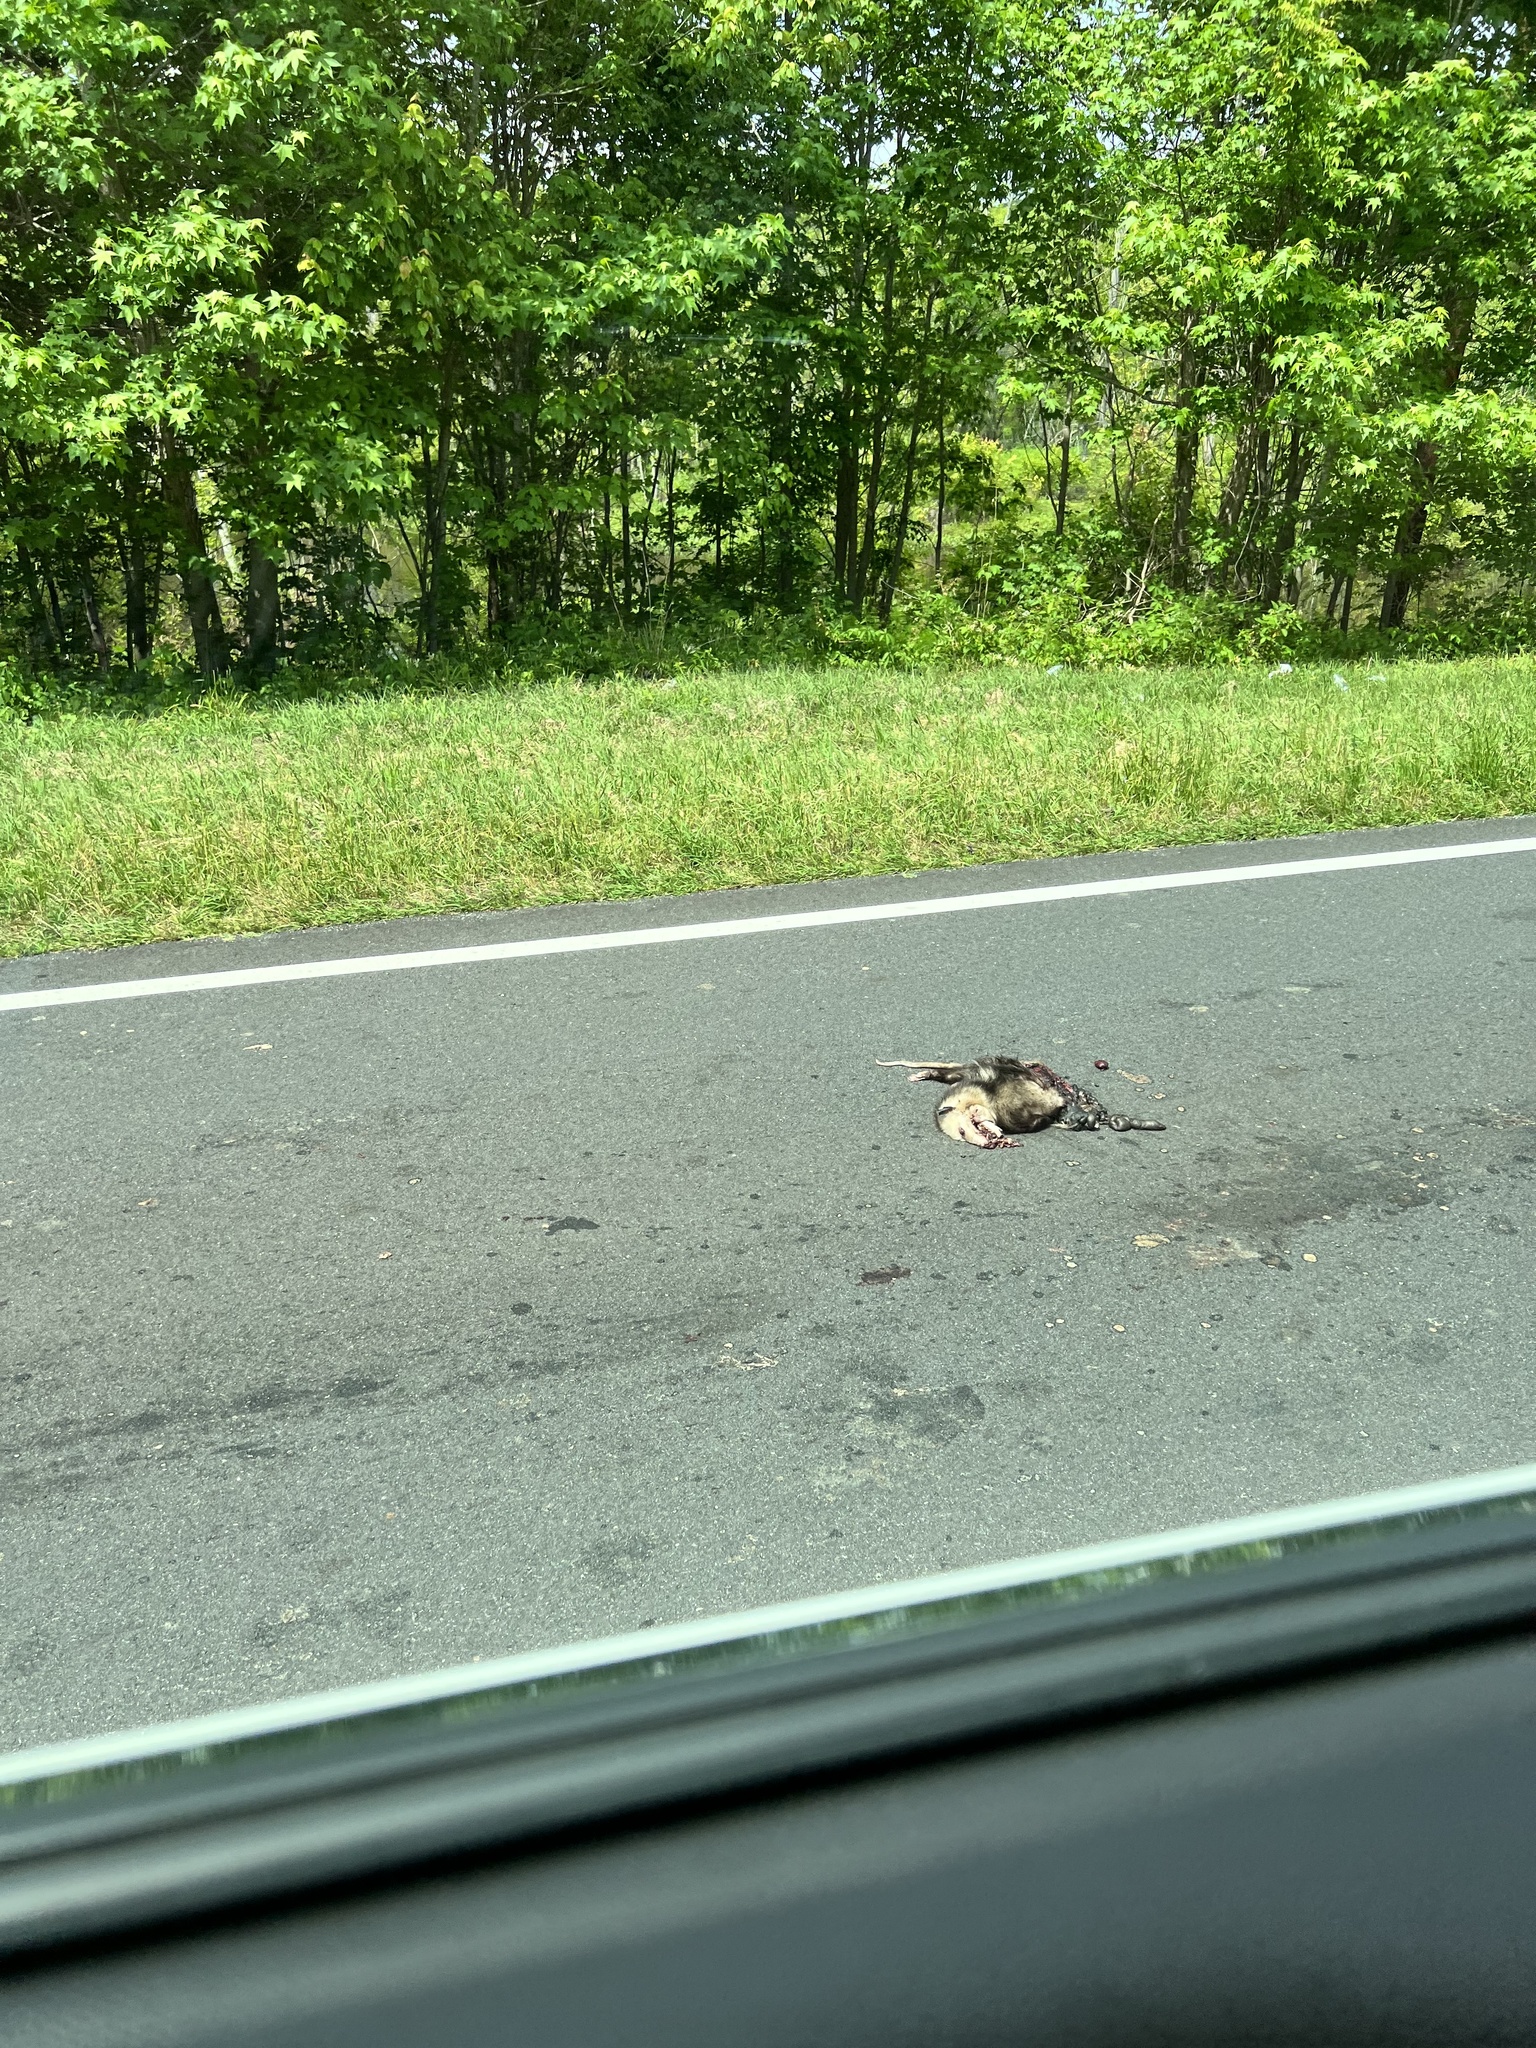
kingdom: Animalia
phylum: Chordata
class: Mammalia
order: Didelphimorphia
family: Didelphidae
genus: Didelphis
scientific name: Didelphis virginiana
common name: Virginia opossum
